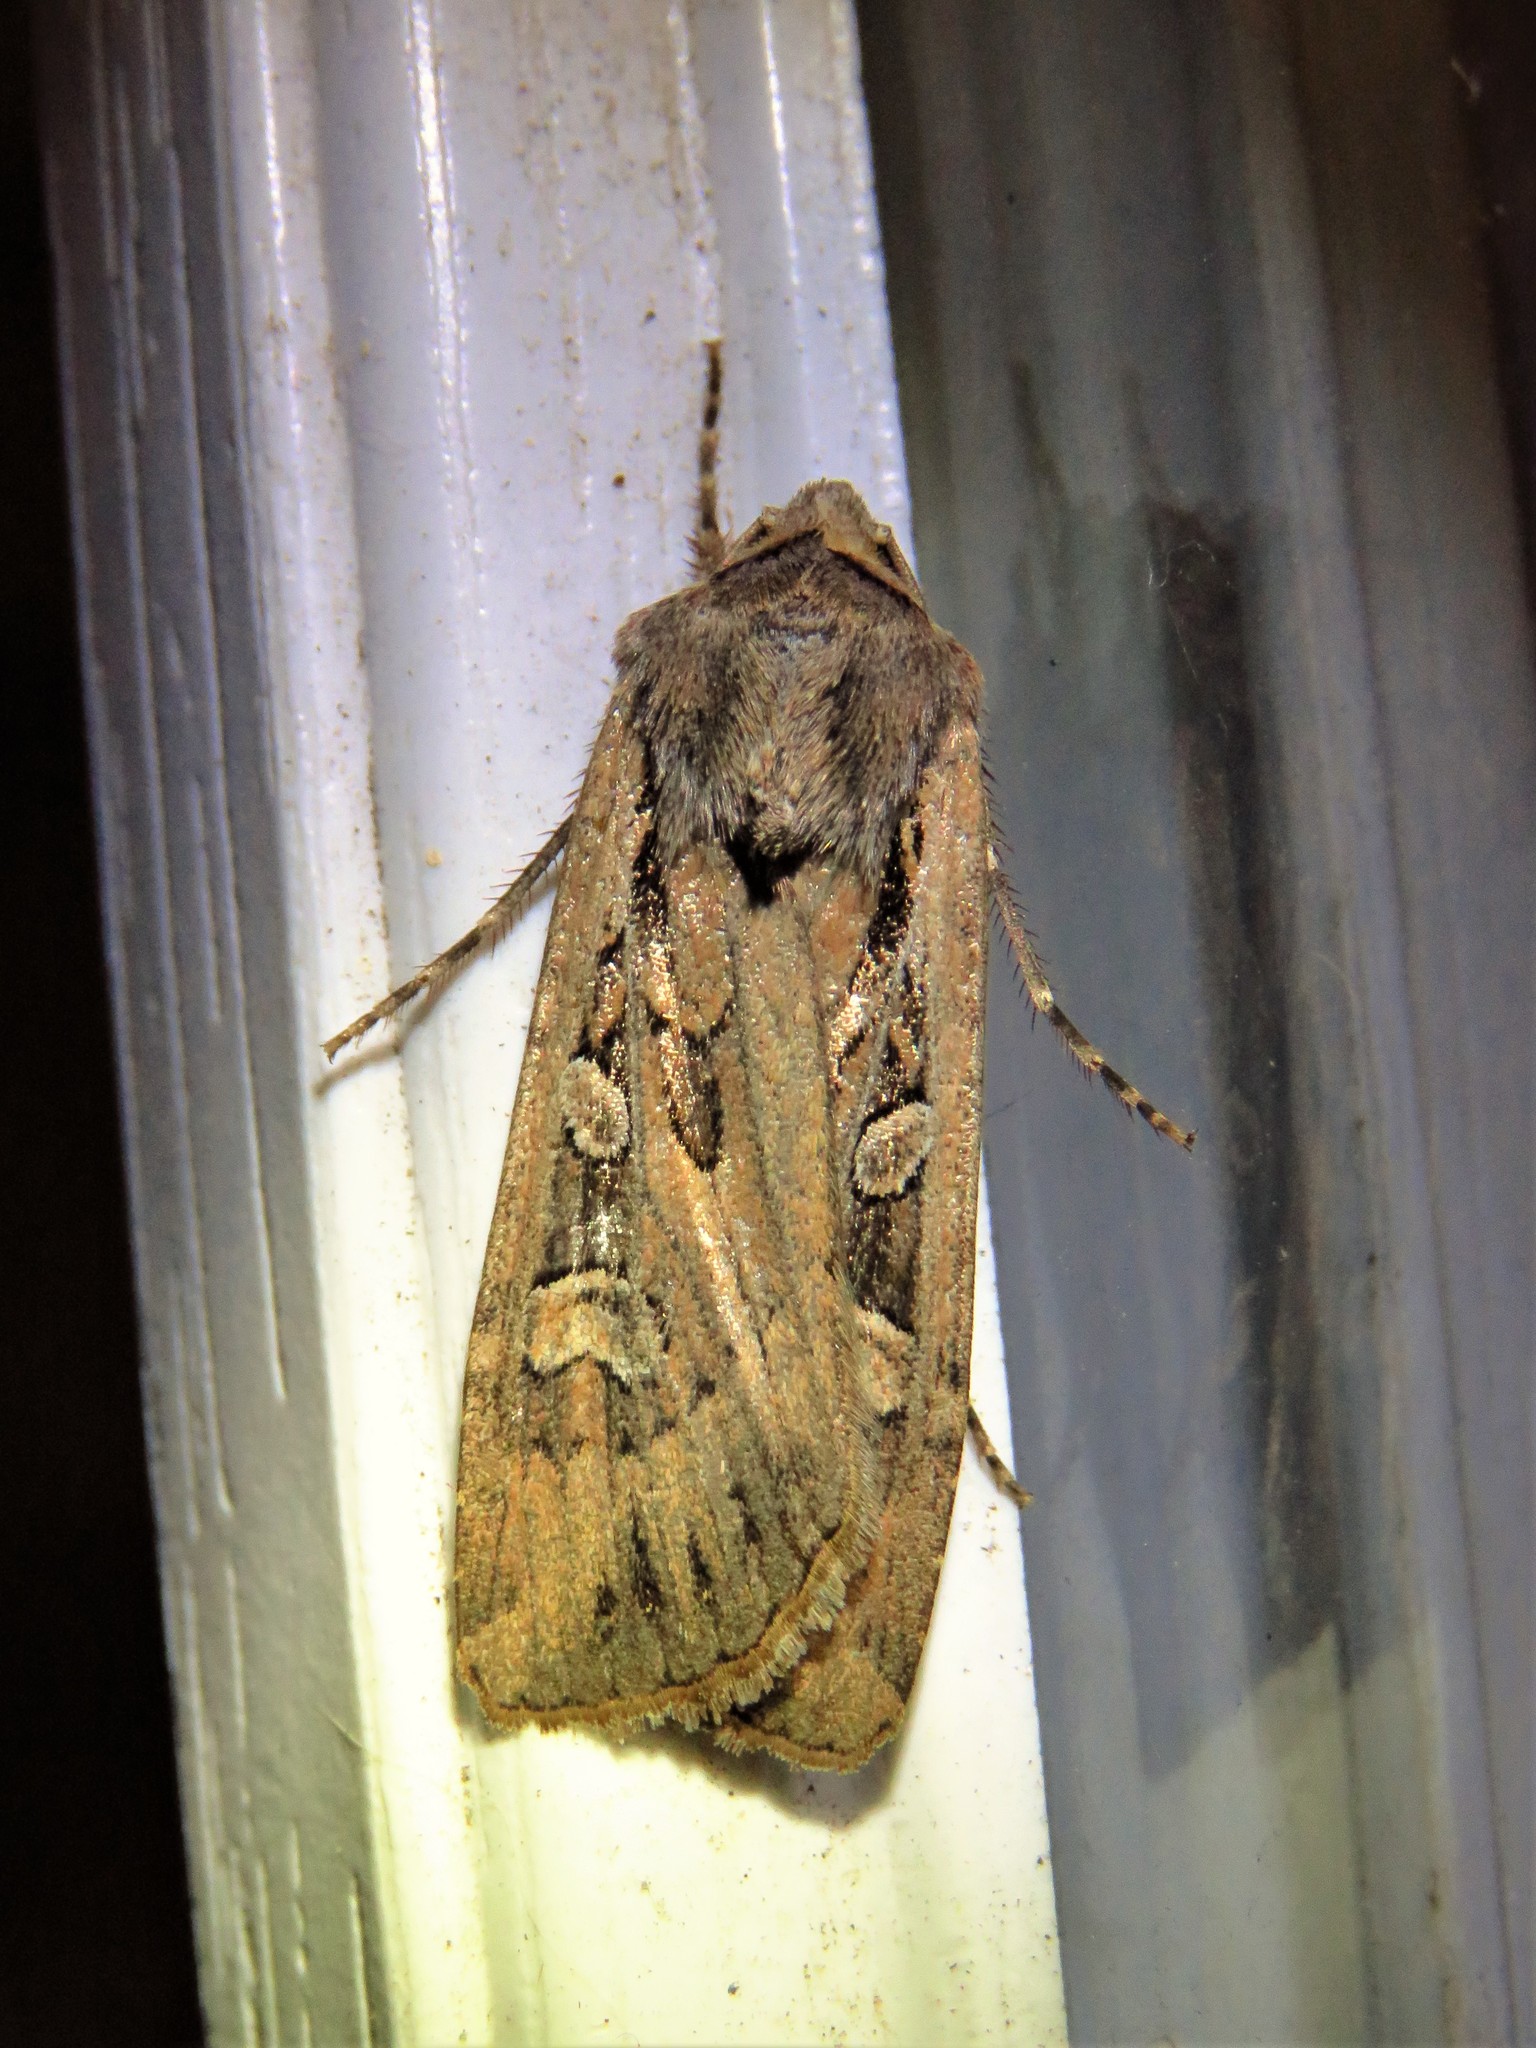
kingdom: Animalia
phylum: Arthropoda
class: Insecta
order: Lepidoptera
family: Noctuidae
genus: Euxoa
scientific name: Euxoa auxiliaris
